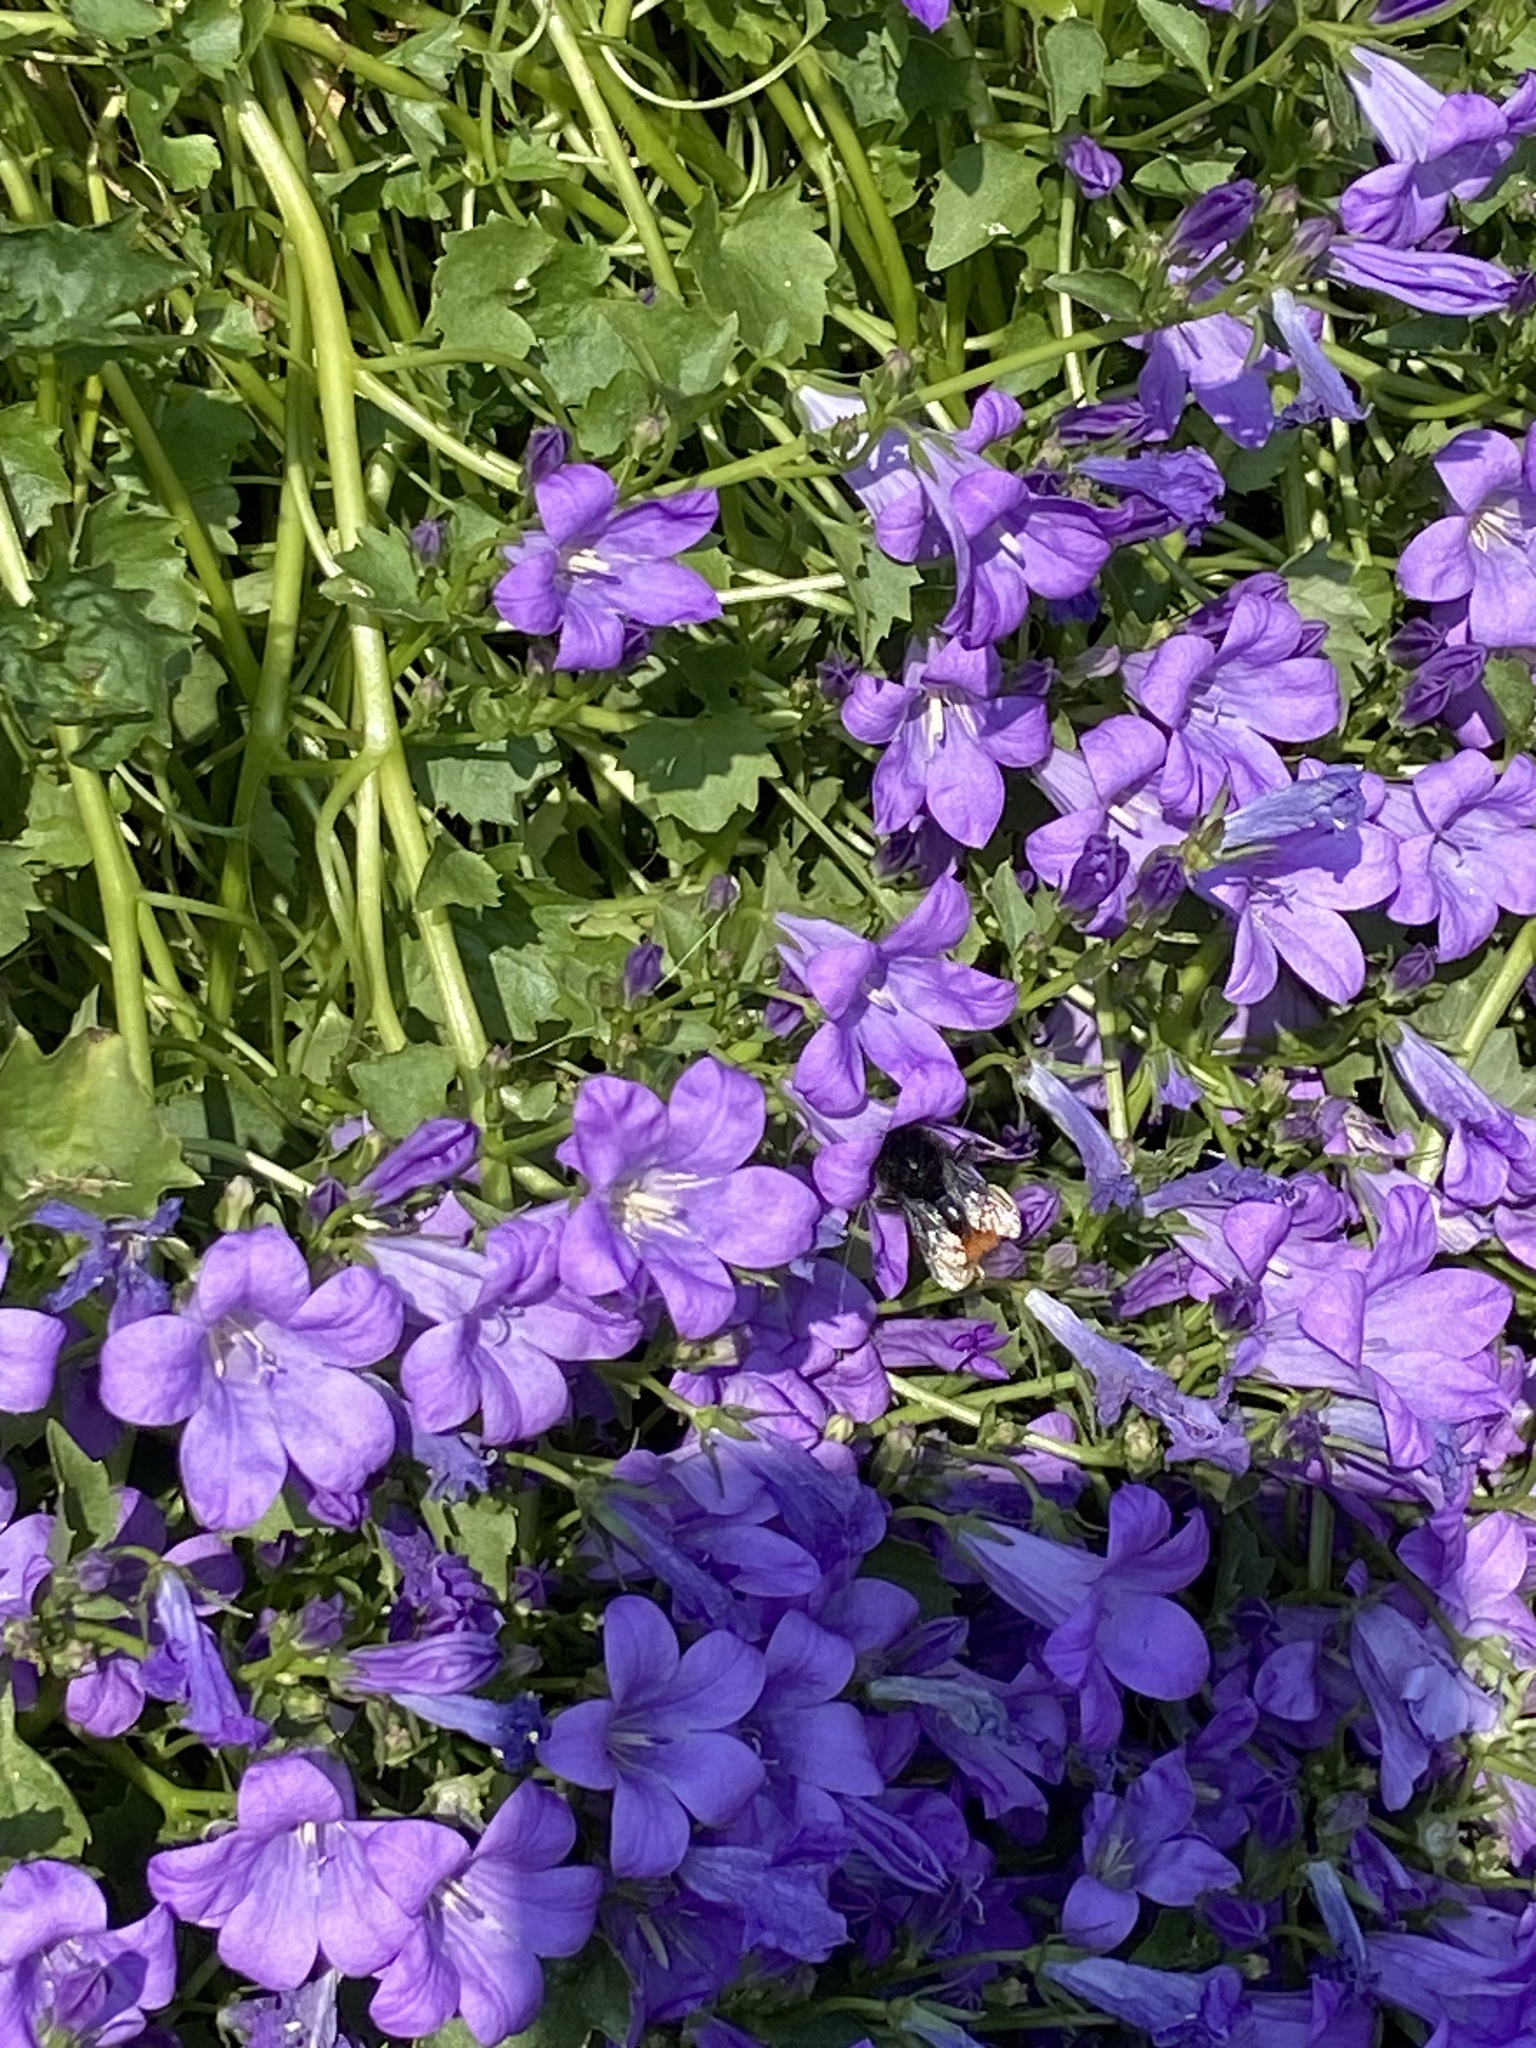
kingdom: Plantae
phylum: Tracheophyta
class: Magnoliopsida
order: Asterales
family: Campanulaceae
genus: Campanula
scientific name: Campanula portenschlagiana
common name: Adria bellflower
